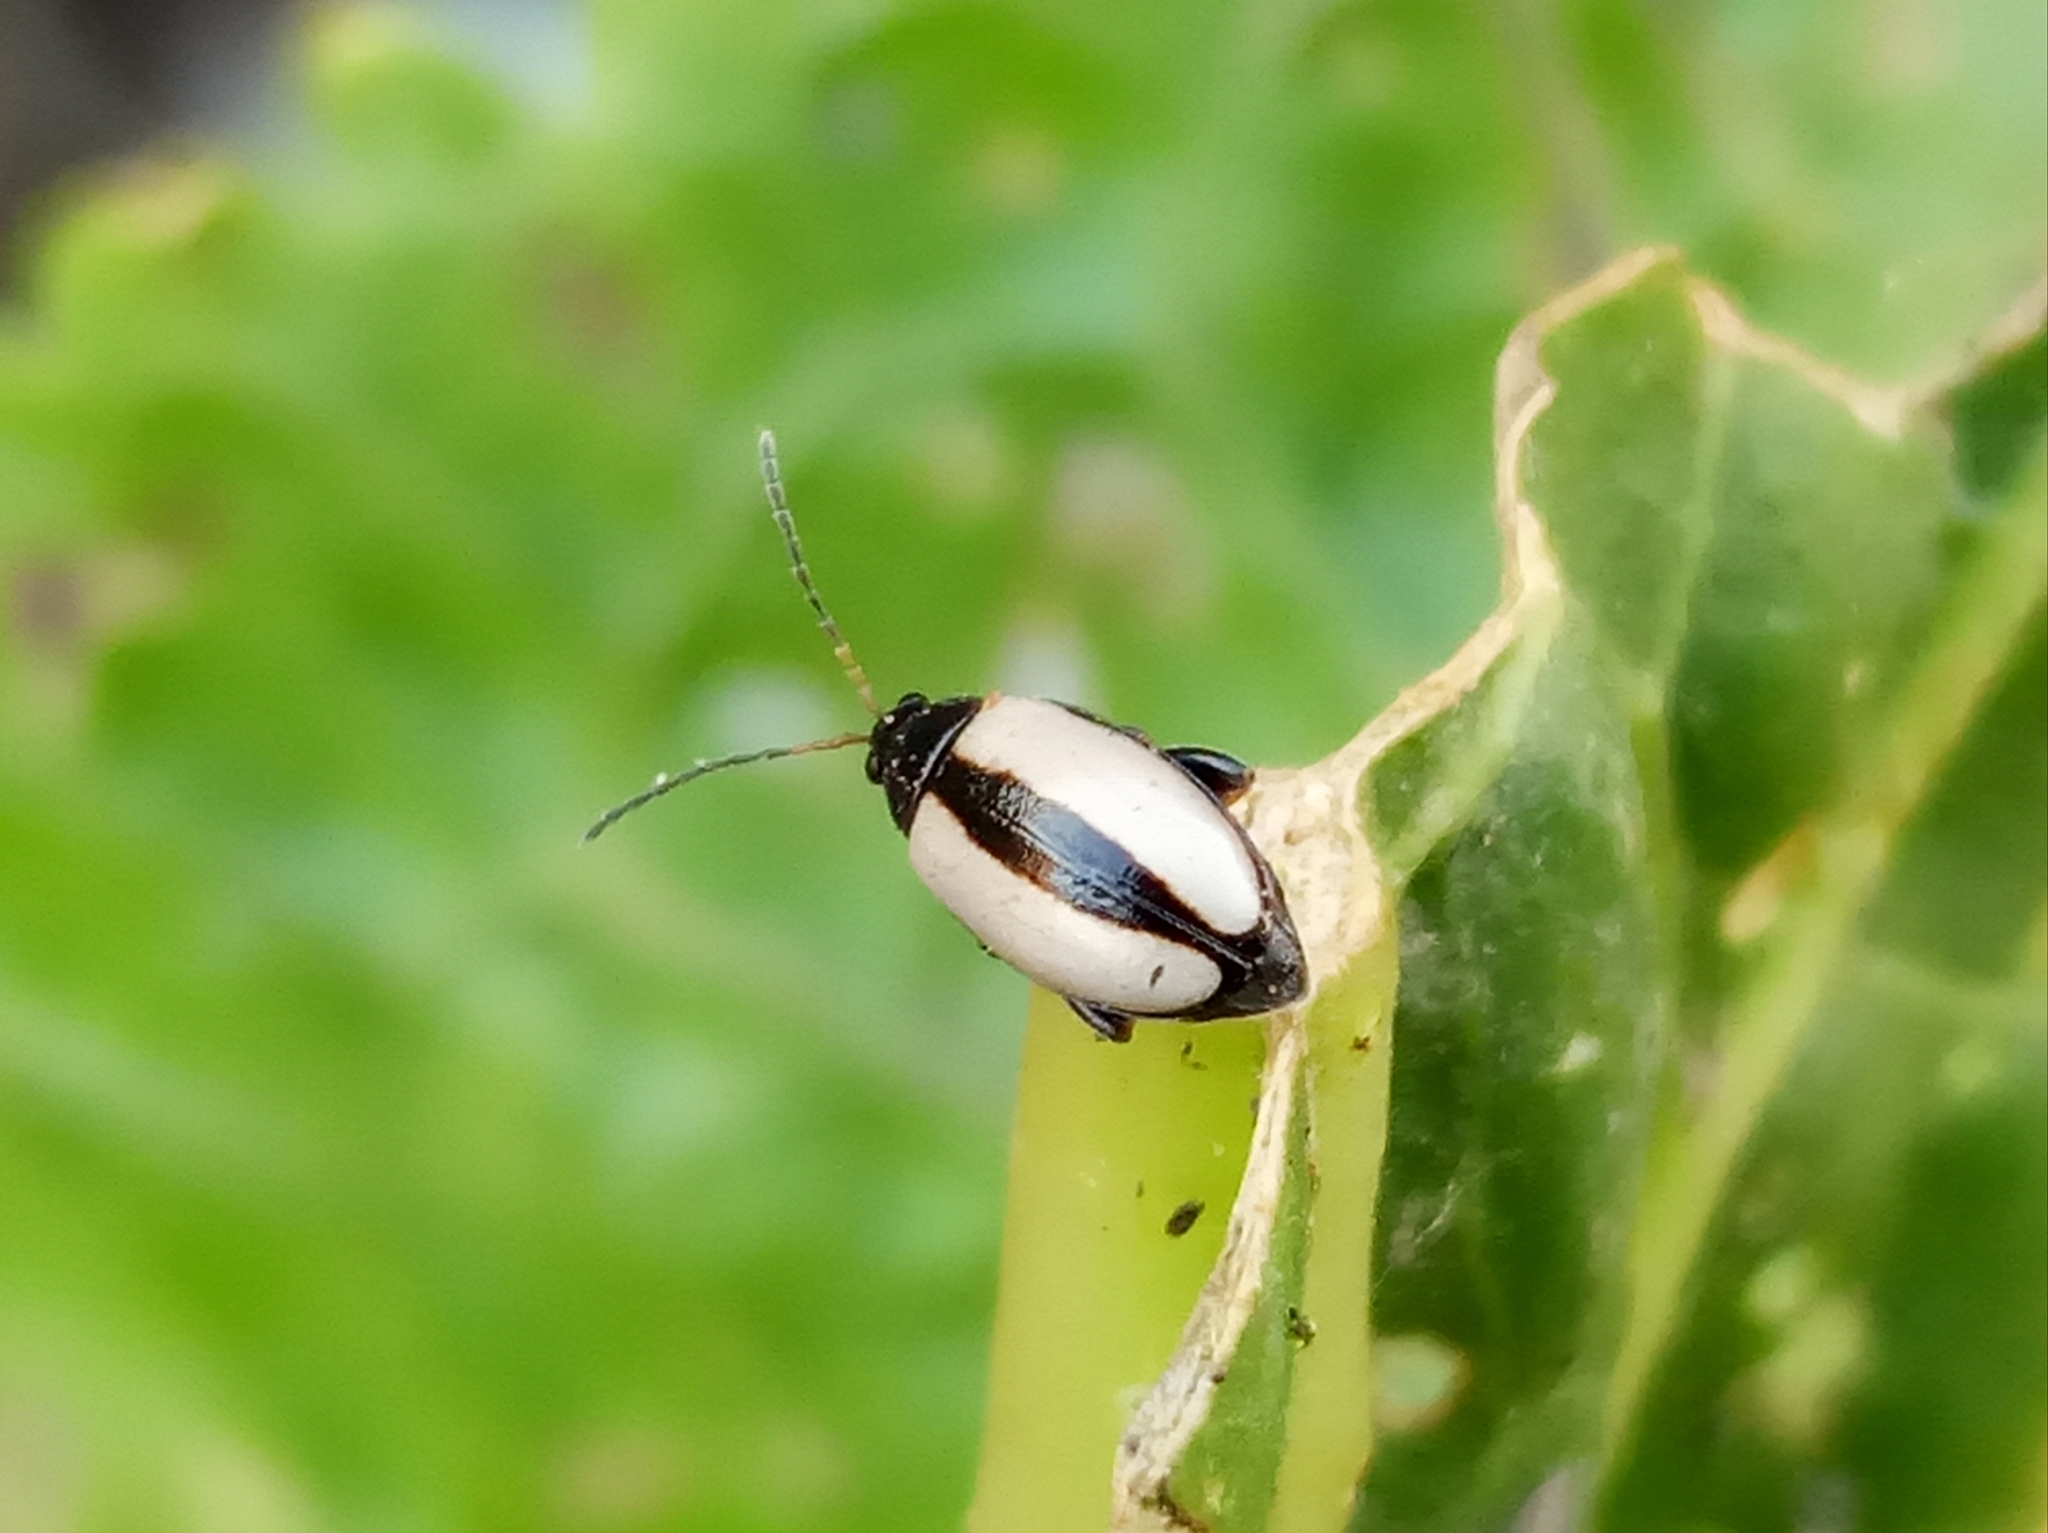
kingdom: Animalia
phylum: Arthropoda
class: Insecta
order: Coleoptera
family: Chrysomelidae
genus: Phyllotreta
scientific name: Phyllotreta armoraciae
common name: Horseradish flea beetle
